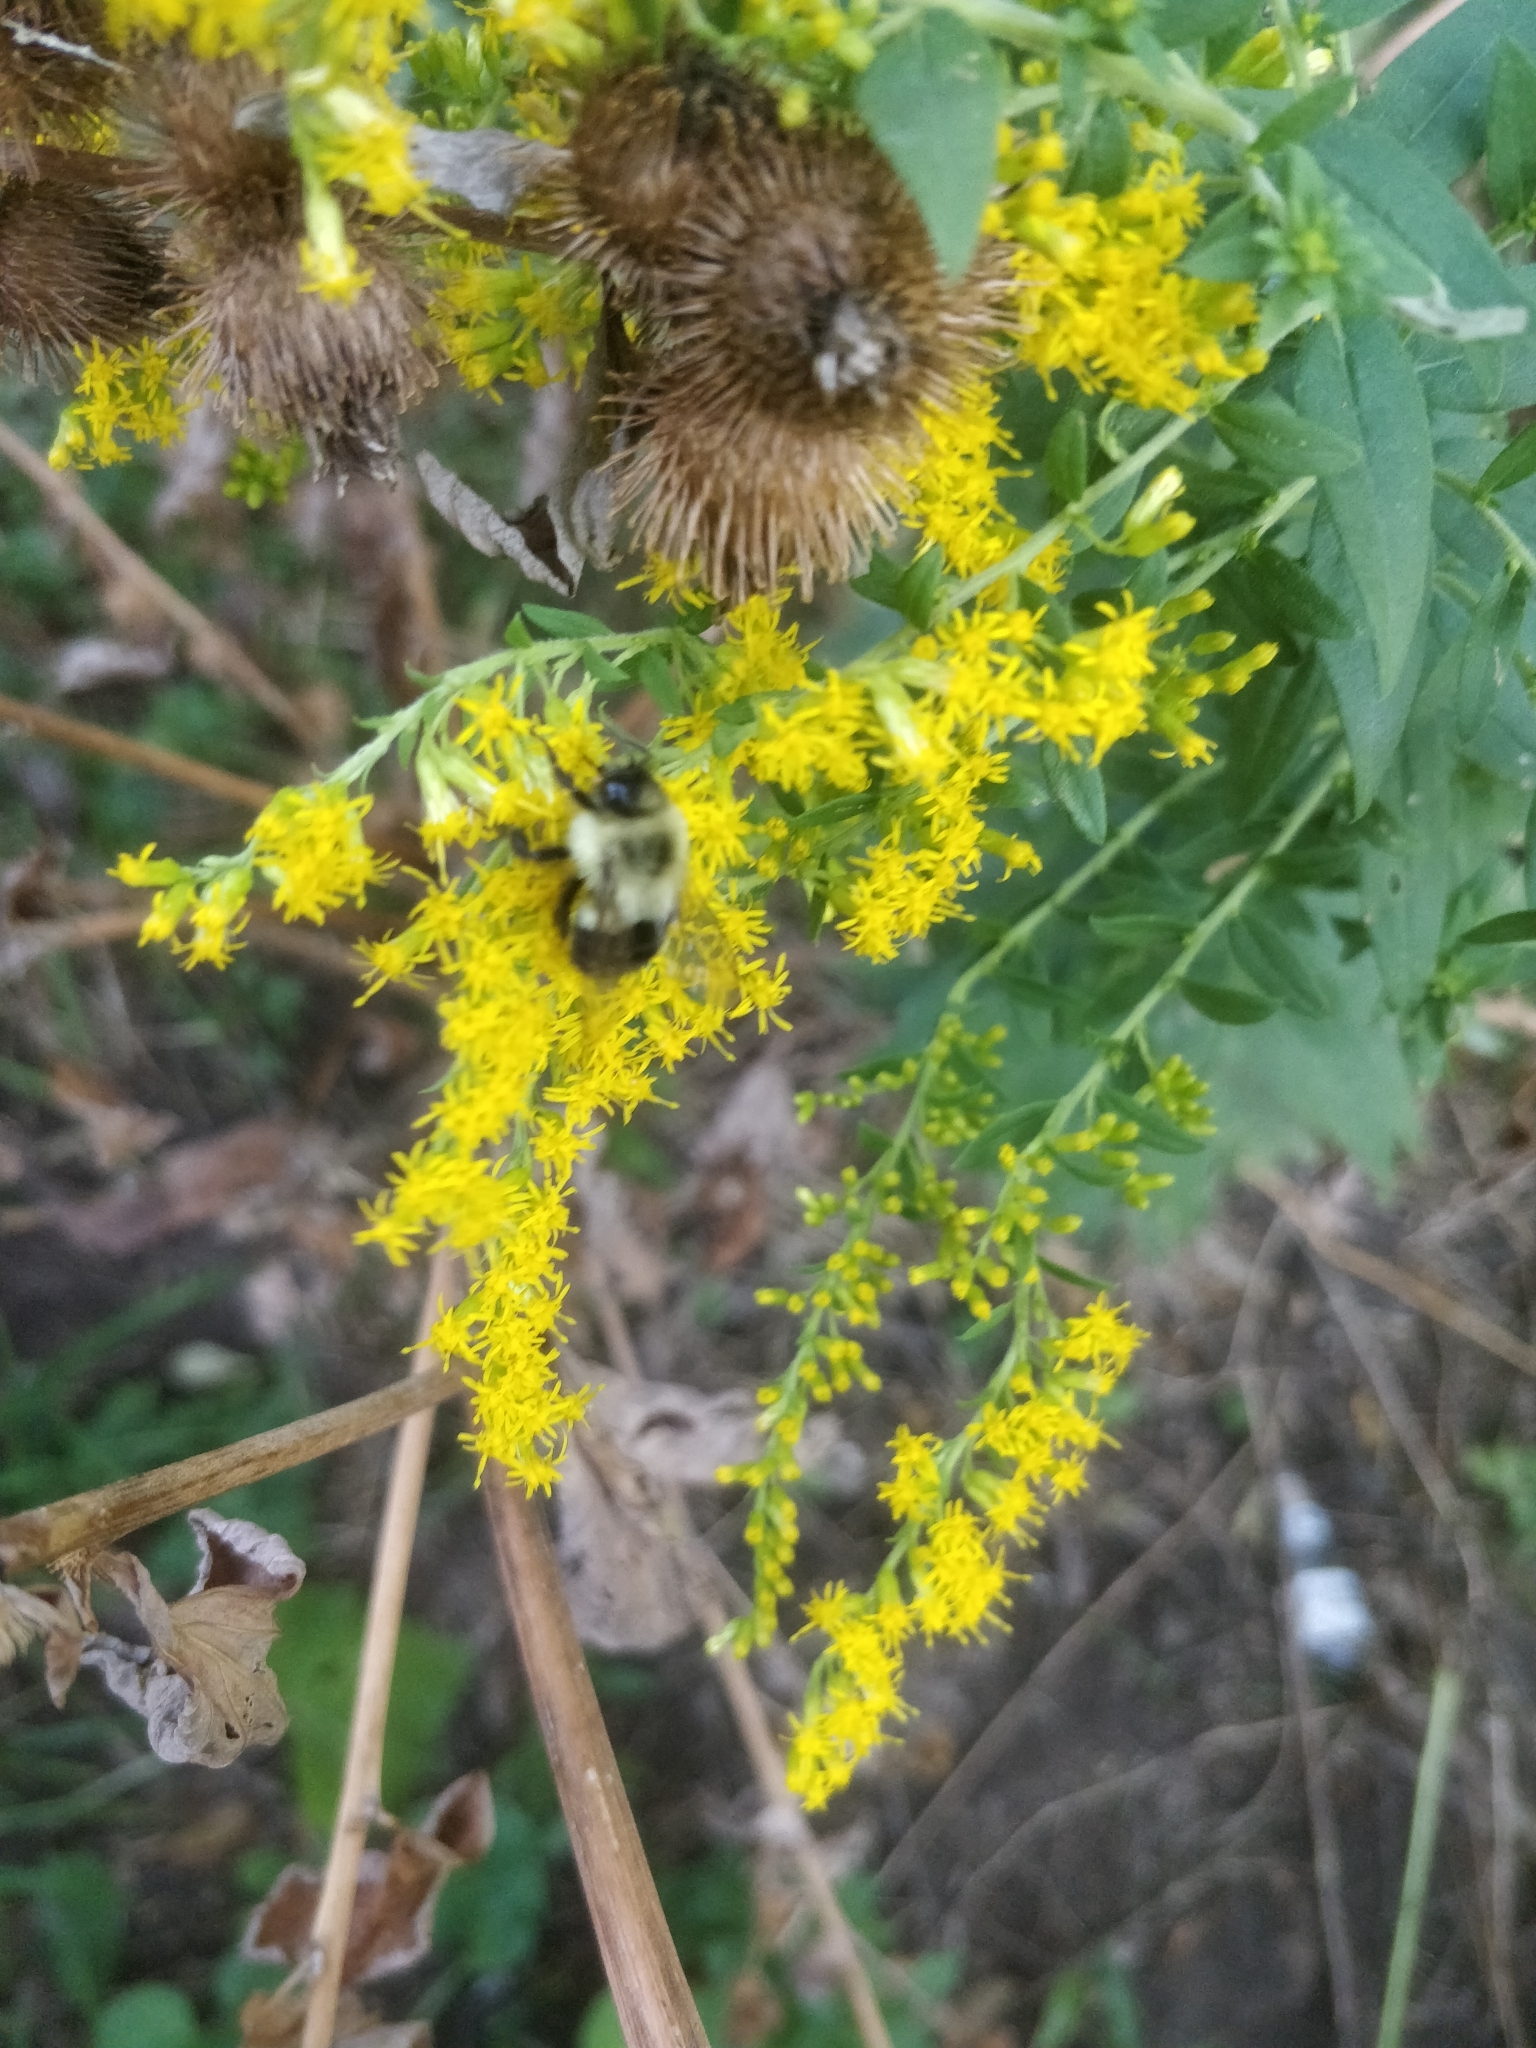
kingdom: Animalia
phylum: Arthropoda
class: Insecta
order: Hymenoptera
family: Apidae
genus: Bombus
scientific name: Bombus impatiens
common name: Common eastern bumble bee
